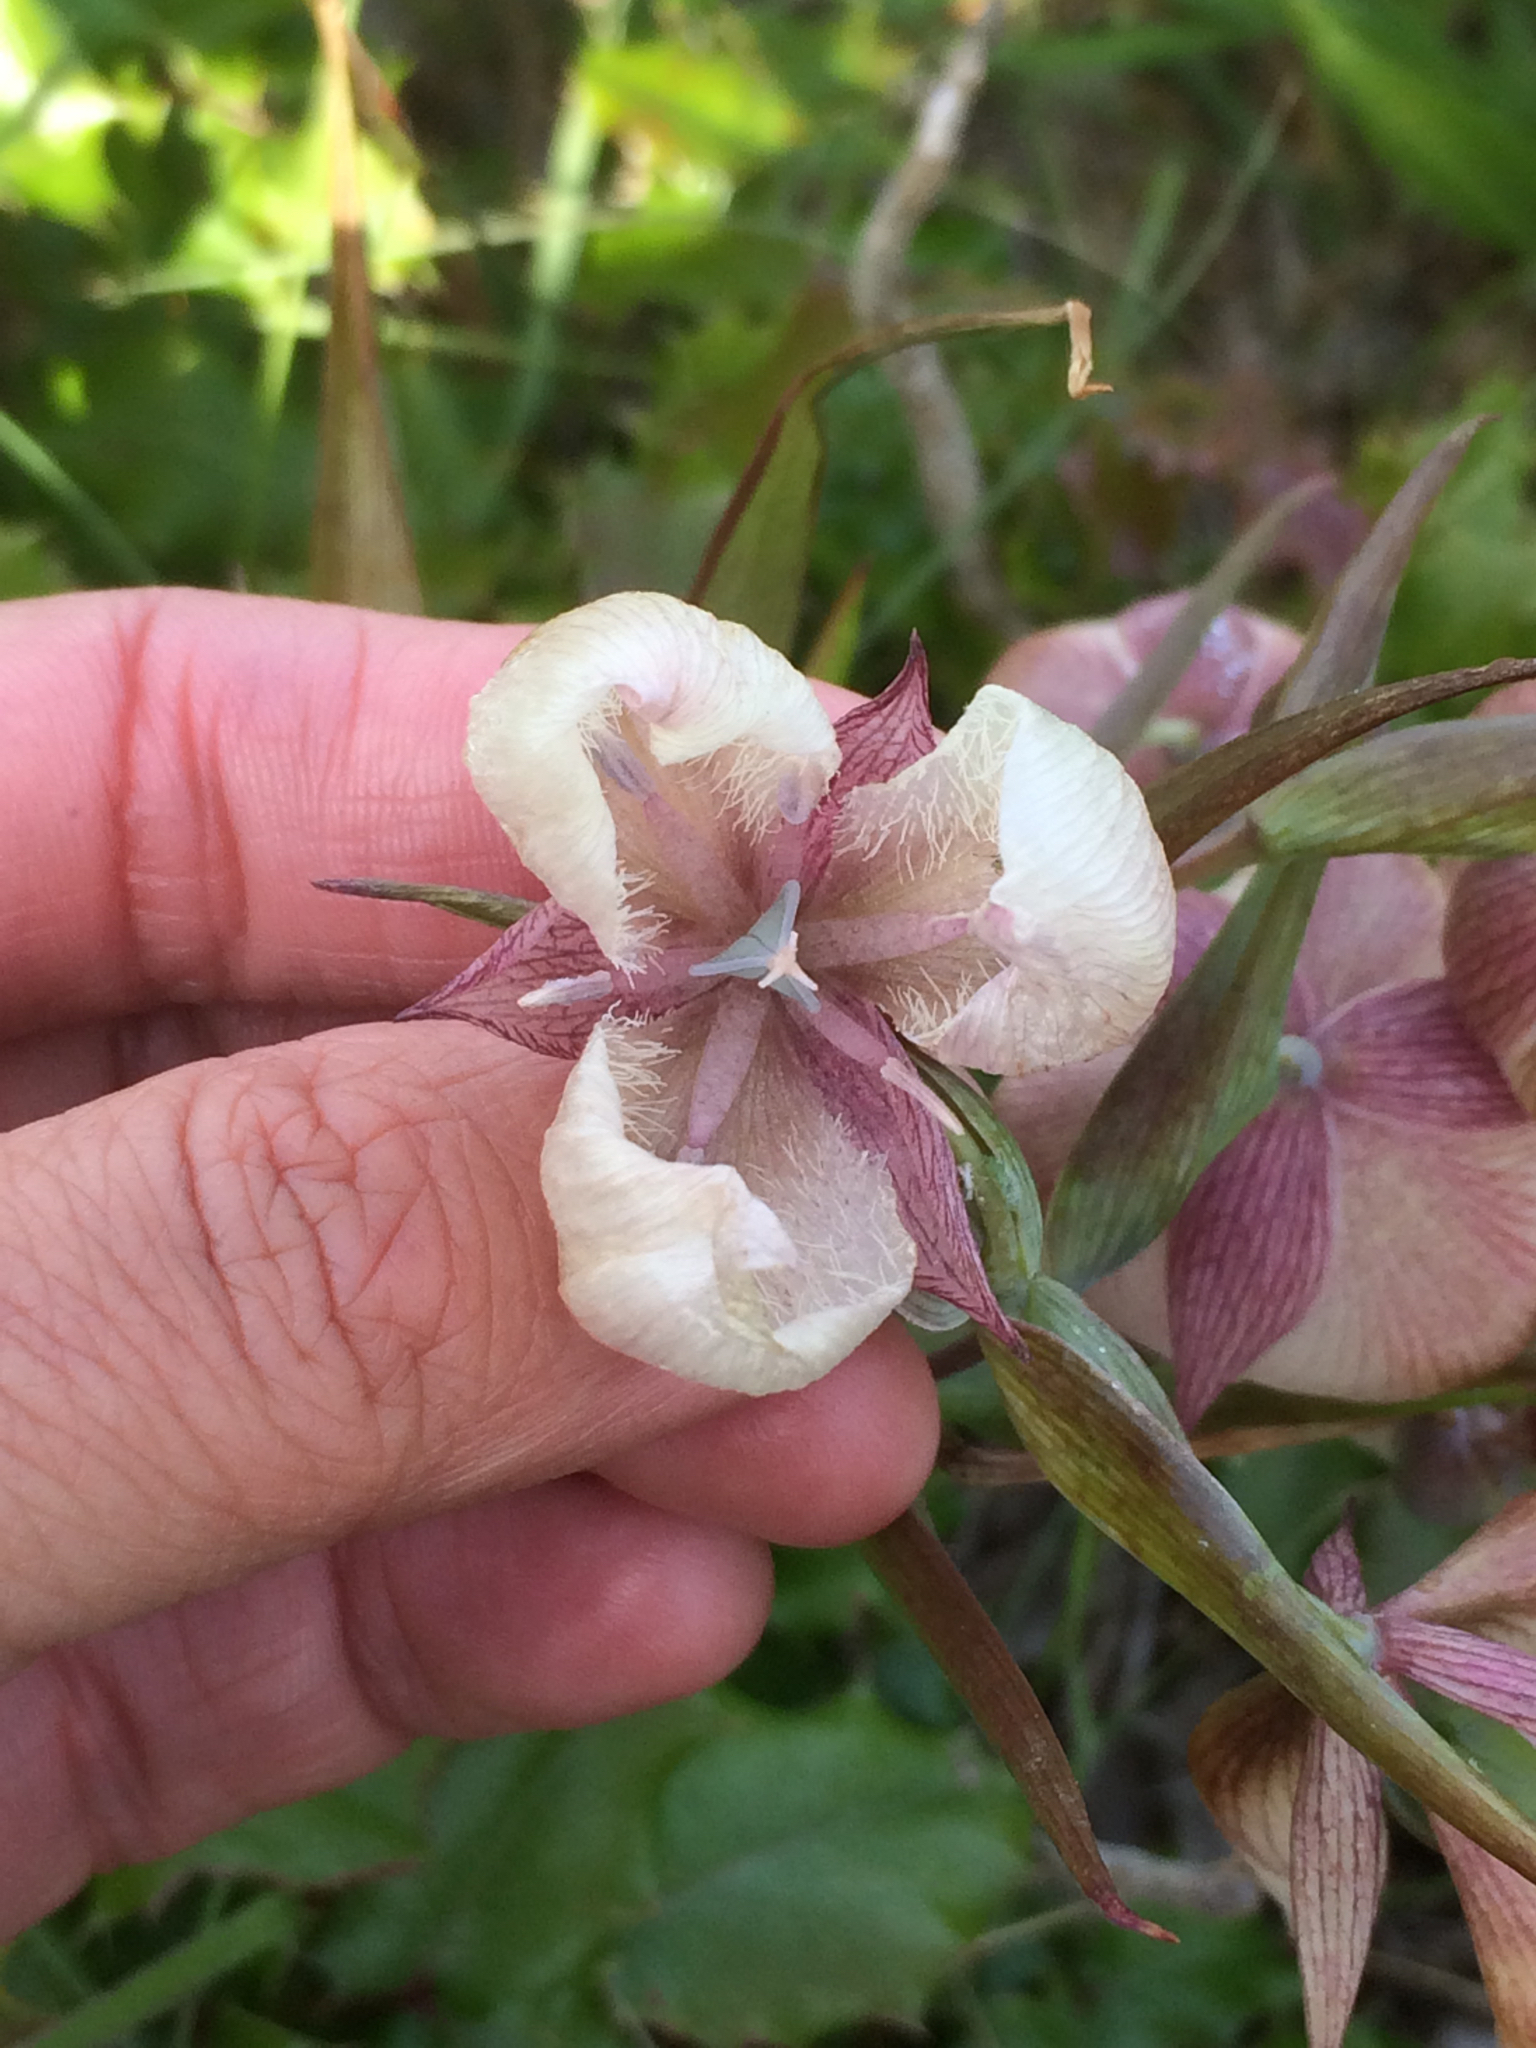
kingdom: Plantae
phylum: Tracheophyta
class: Liliopsida
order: Liliales
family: Liliaceae
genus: Calochortus
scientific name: Calochortus albus
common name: Fairy-lantern
